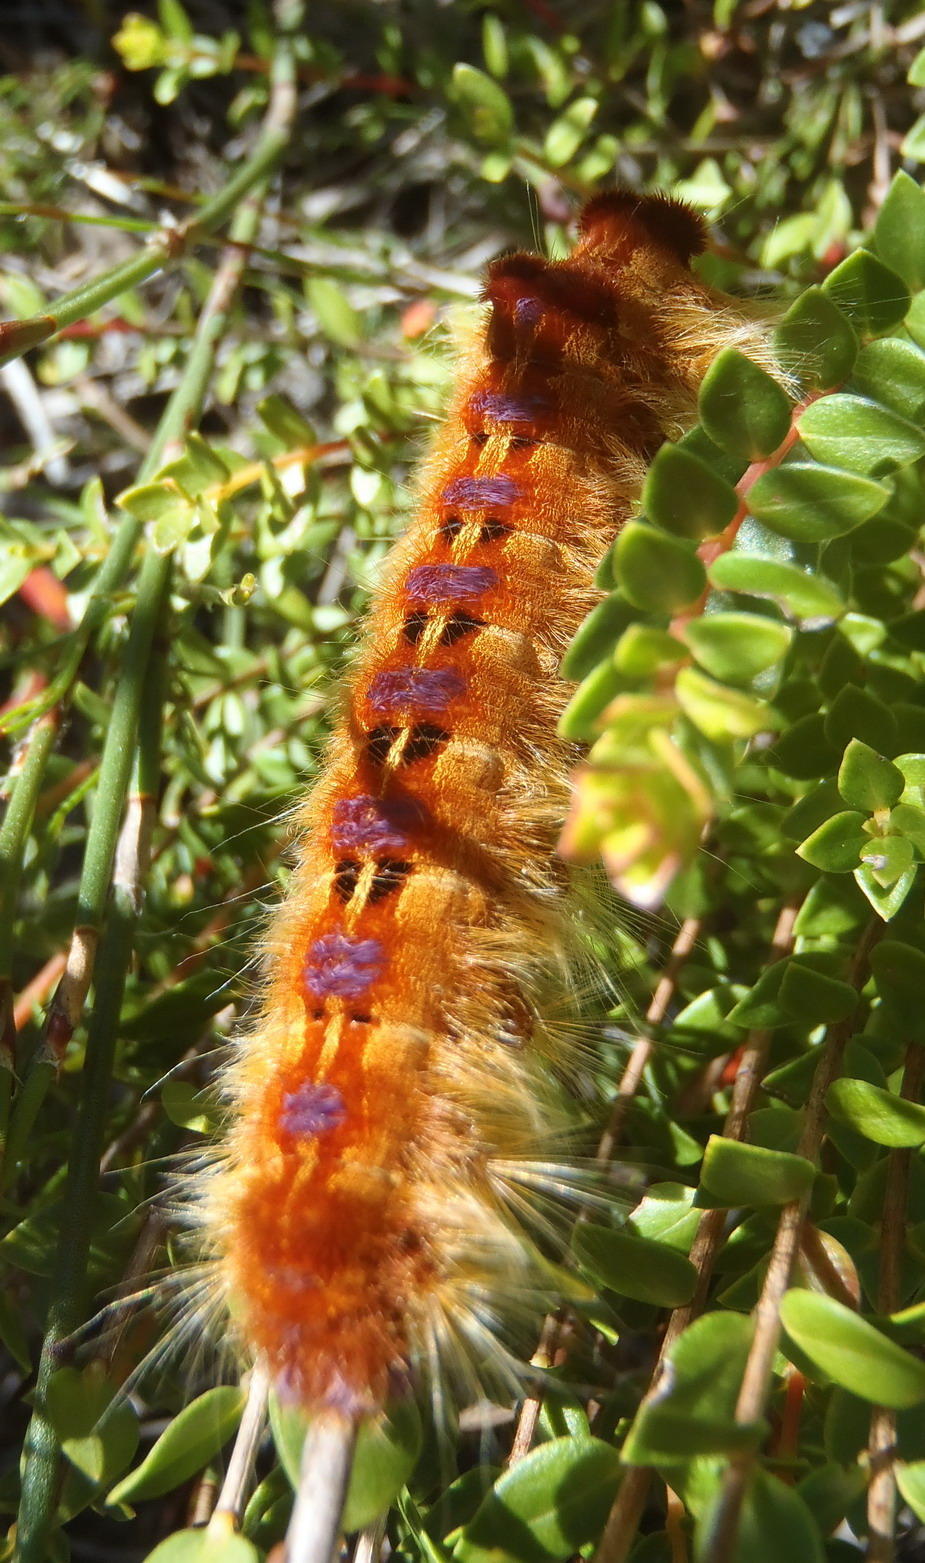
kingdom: Animalia
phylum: Arthropoda
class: Insecta
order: Lepidoptera
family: Lasiocampidae
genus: Eutricha
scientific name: Eutricha bifascia
